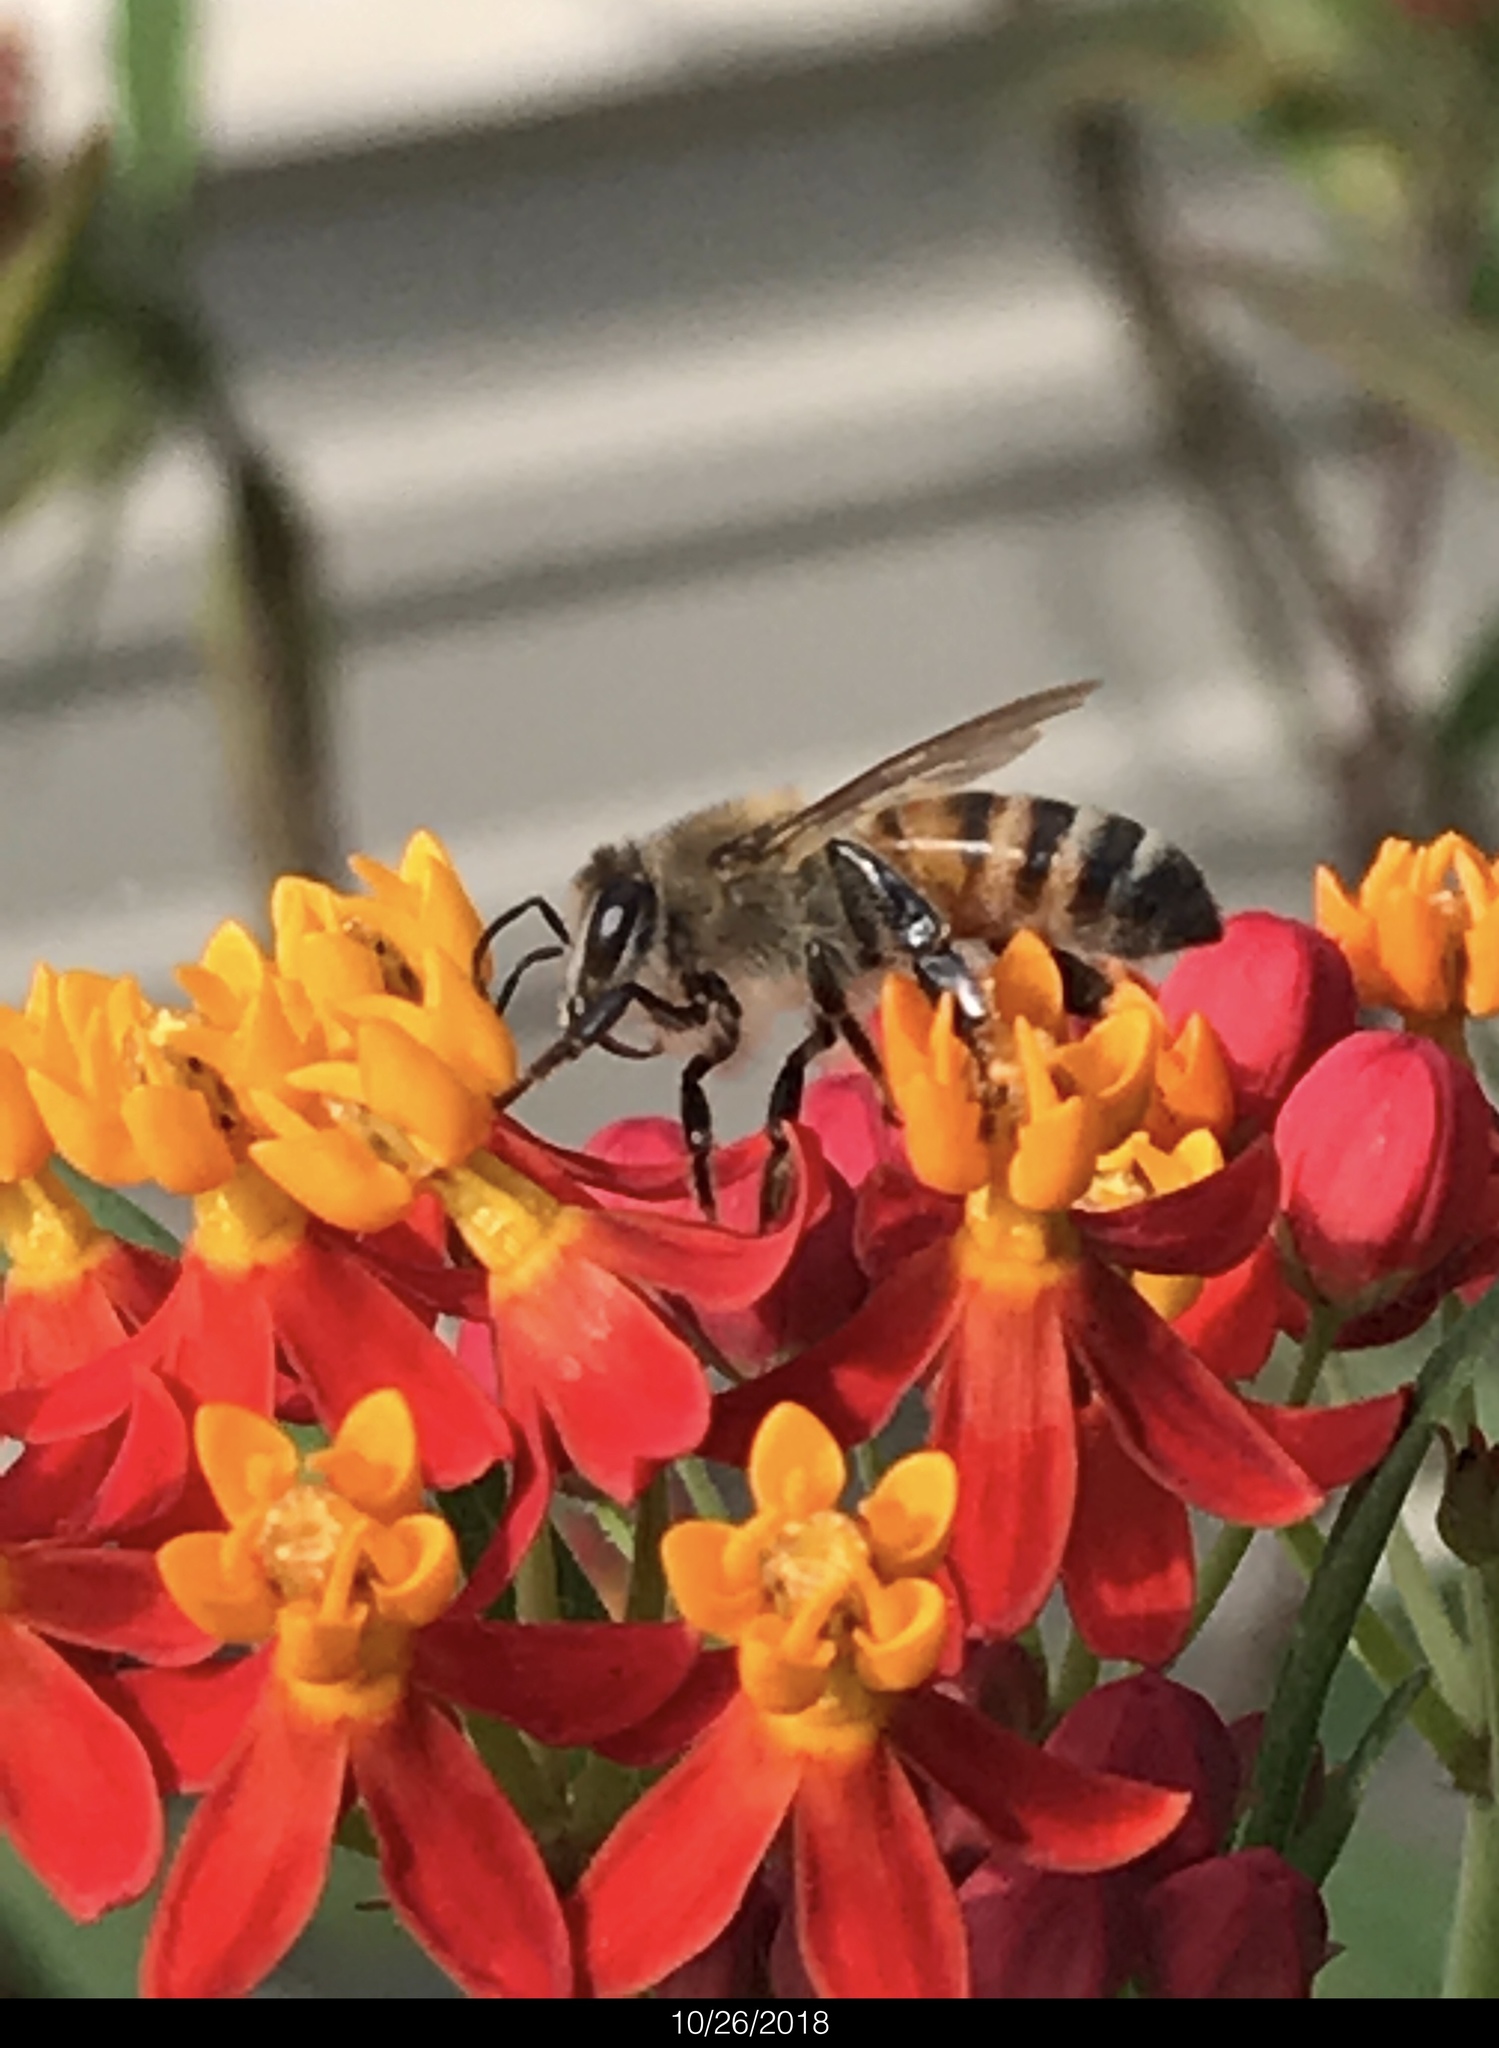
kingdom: Animalia
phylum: Arthropoda
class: Insecta
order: Hymenoptera
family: Apidae
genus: Apis
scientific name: Apis mellifera
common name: Honey bee
